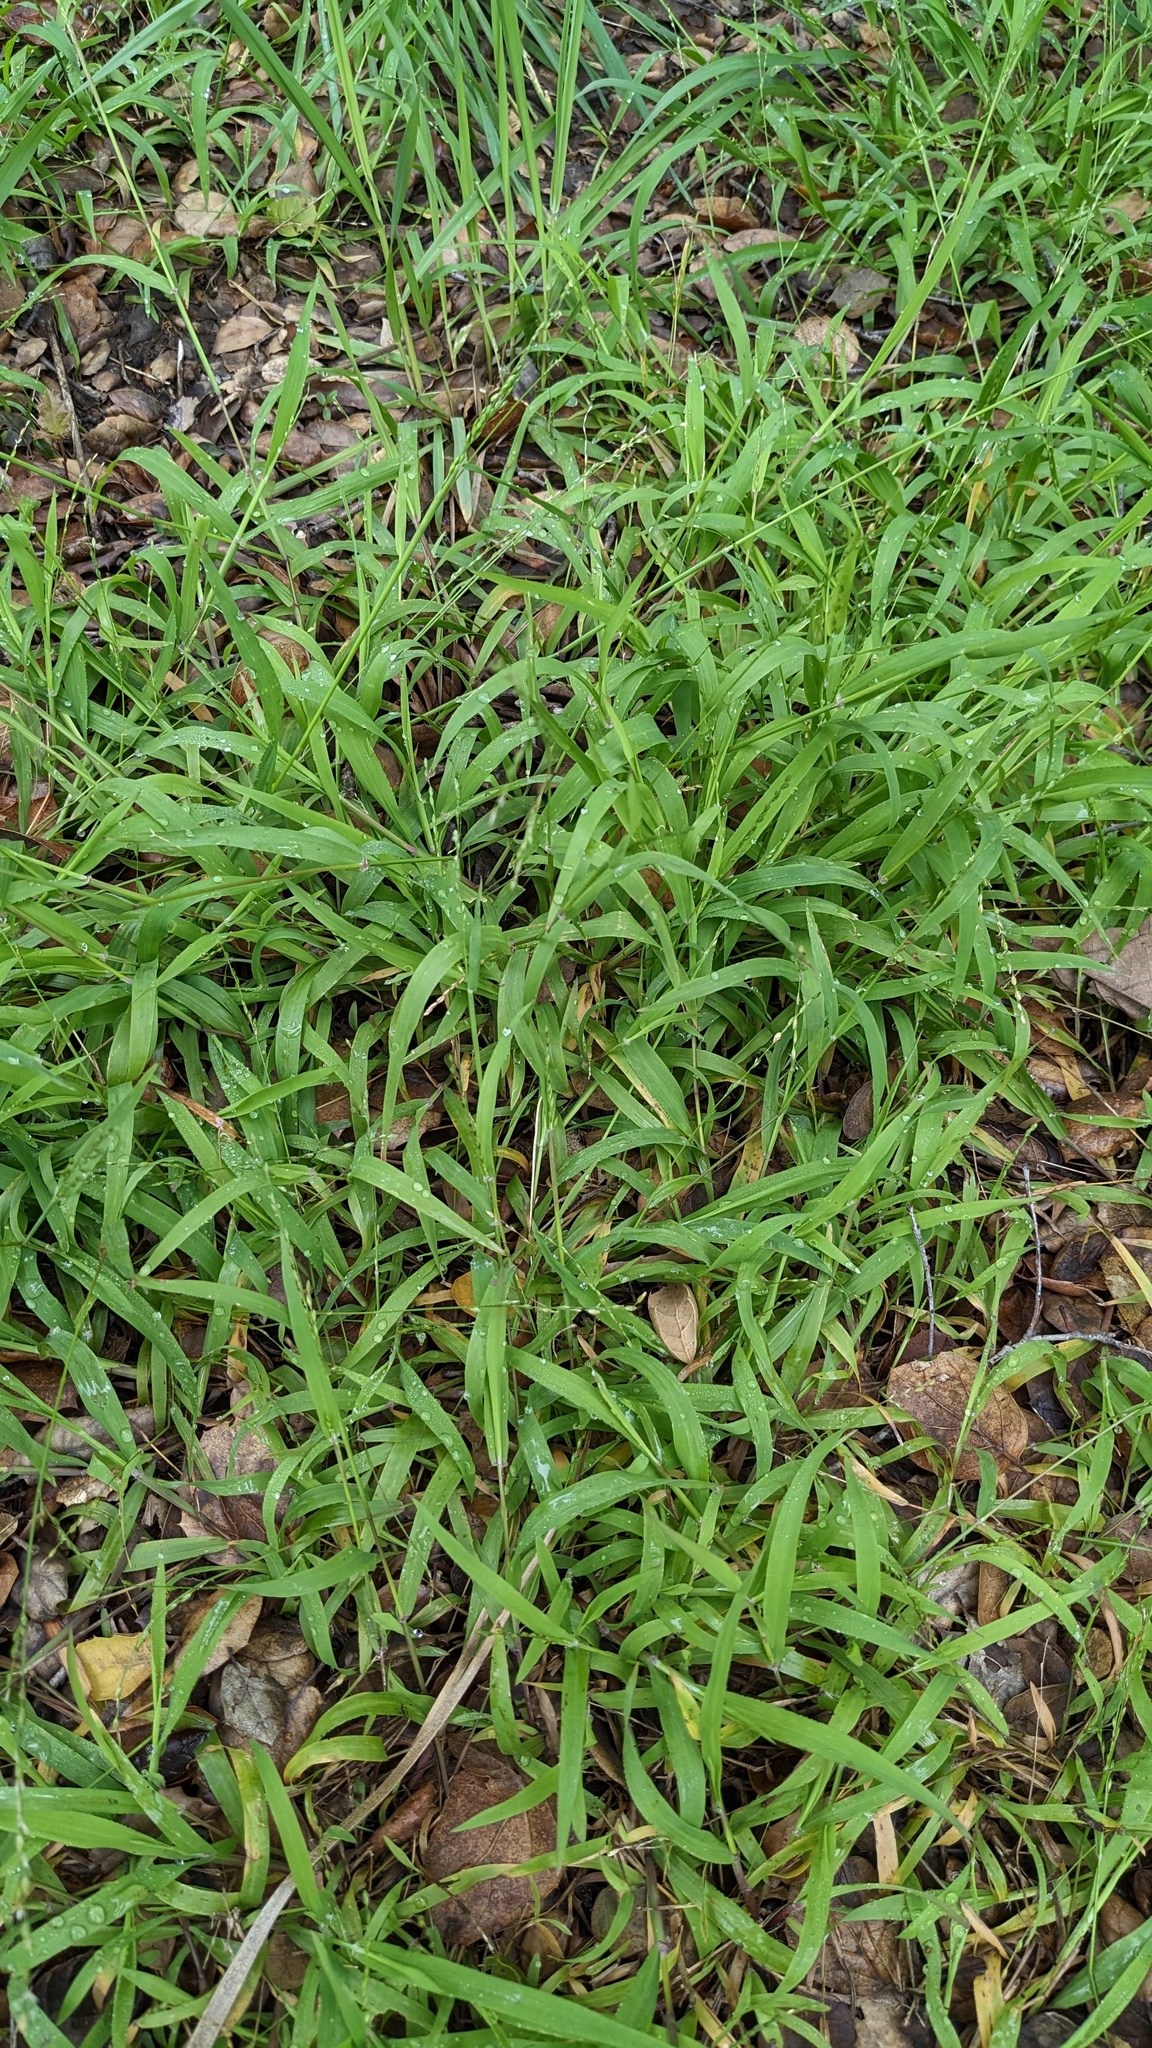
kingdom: Plantae
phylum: Tracheophyta
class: Liliopsida
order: Poales
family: Poaceae
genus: Ehrharta
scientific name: Ehrharta erecta
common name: Panic veldtgrass
